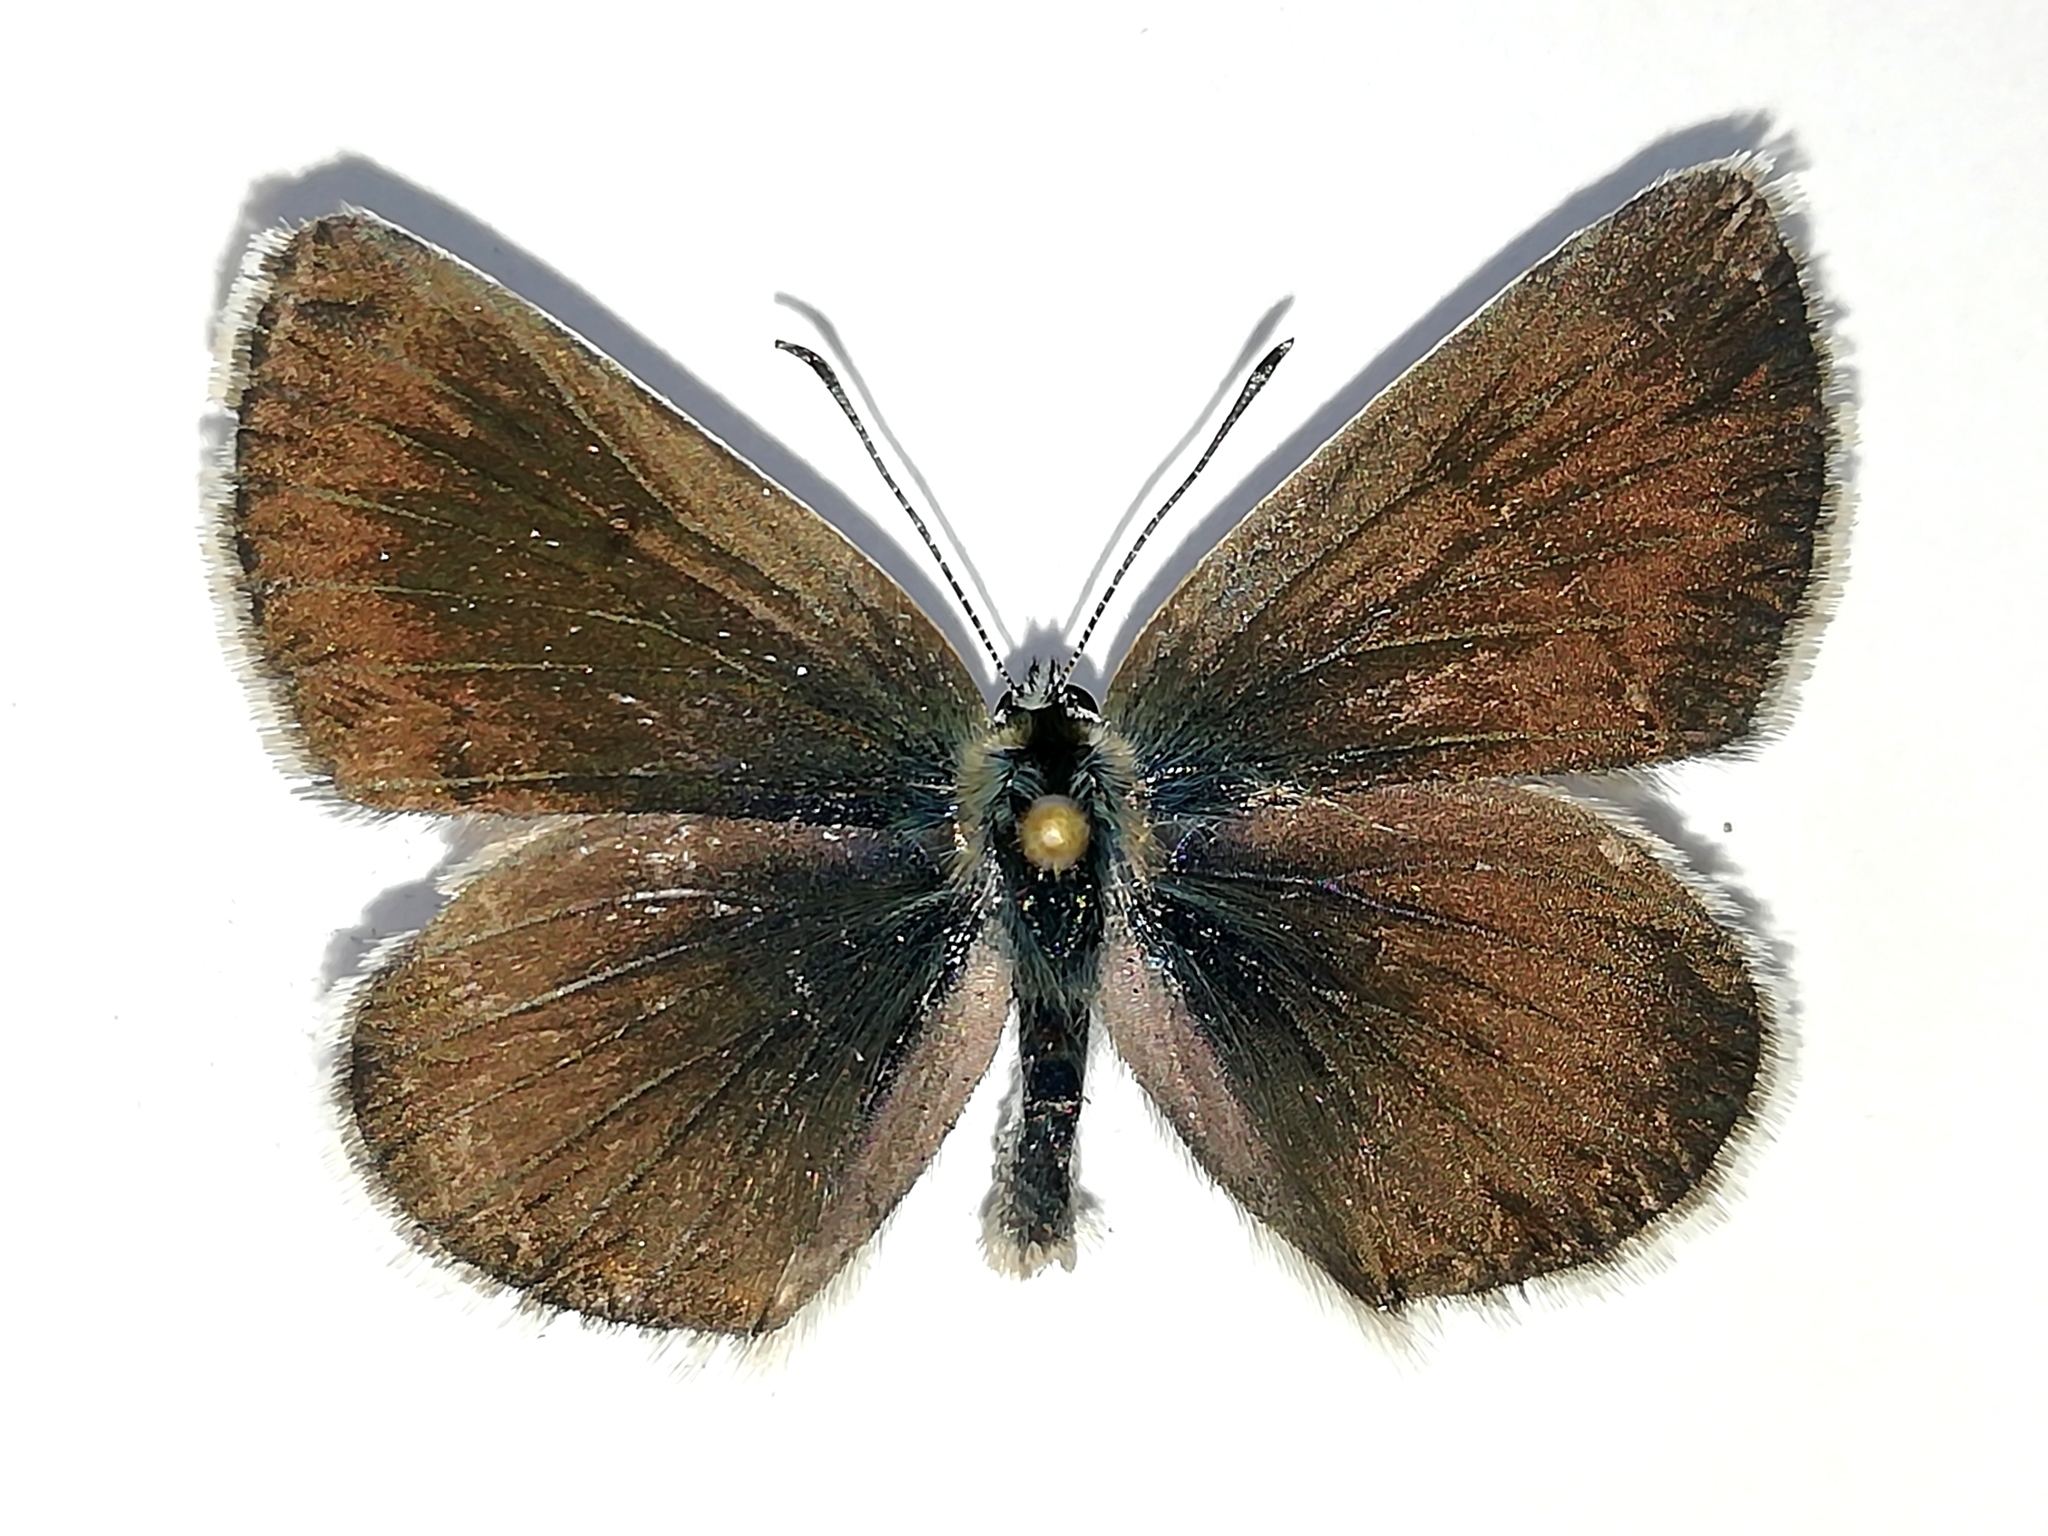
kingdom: Animalia
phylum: Arthropoda
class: Insecta
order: Lepidoptera
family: Lycaenidae
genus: Eumedonia
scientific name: Eumedonia eumedon
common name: Geranium argus
